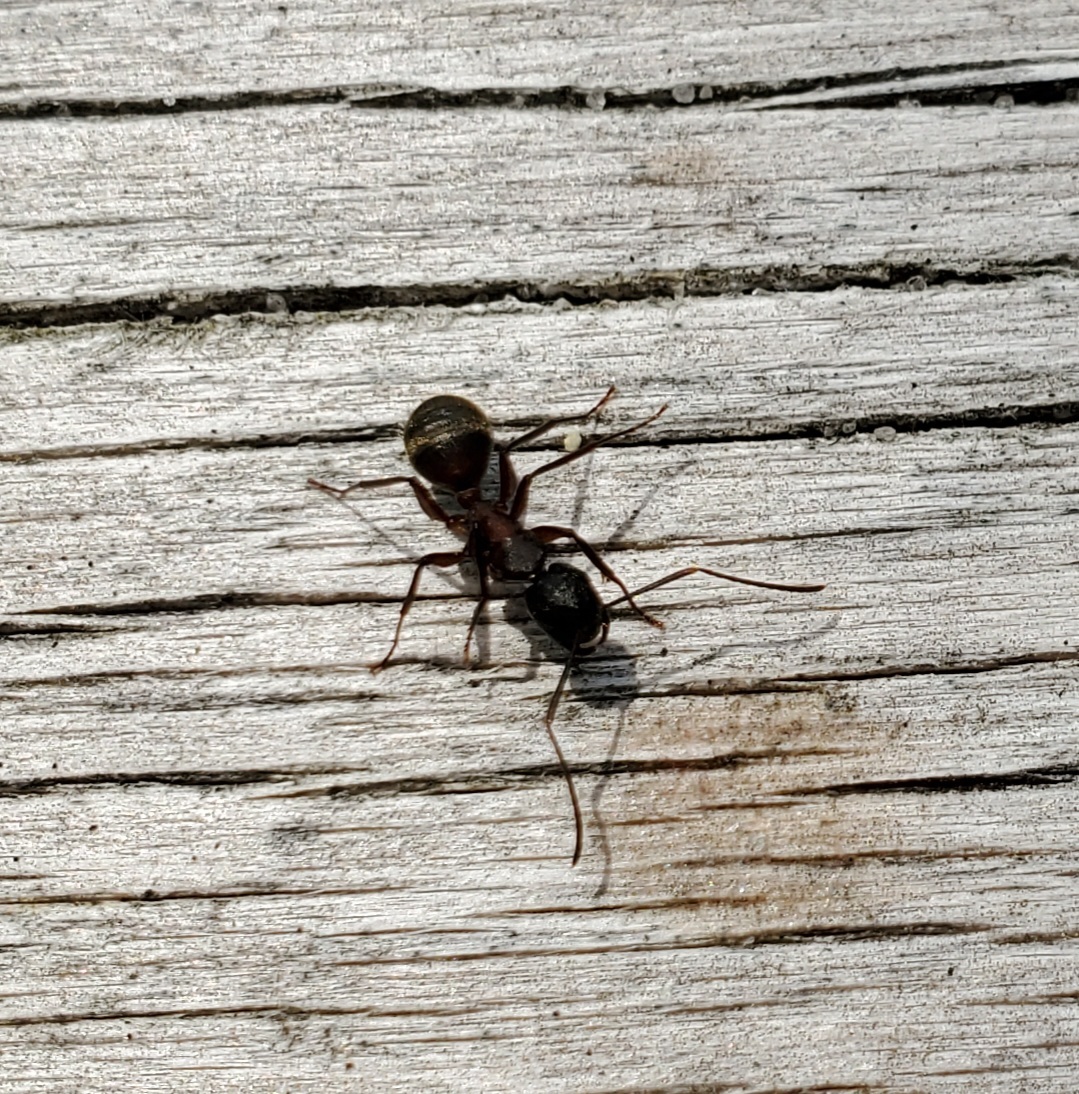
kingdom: Animalia
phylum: Arthropoda
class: Insecta
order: Hymenoptera
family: Formicidae
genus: Camponotus
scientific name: Camponotus chromaiodes
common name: Red carpenter ant
